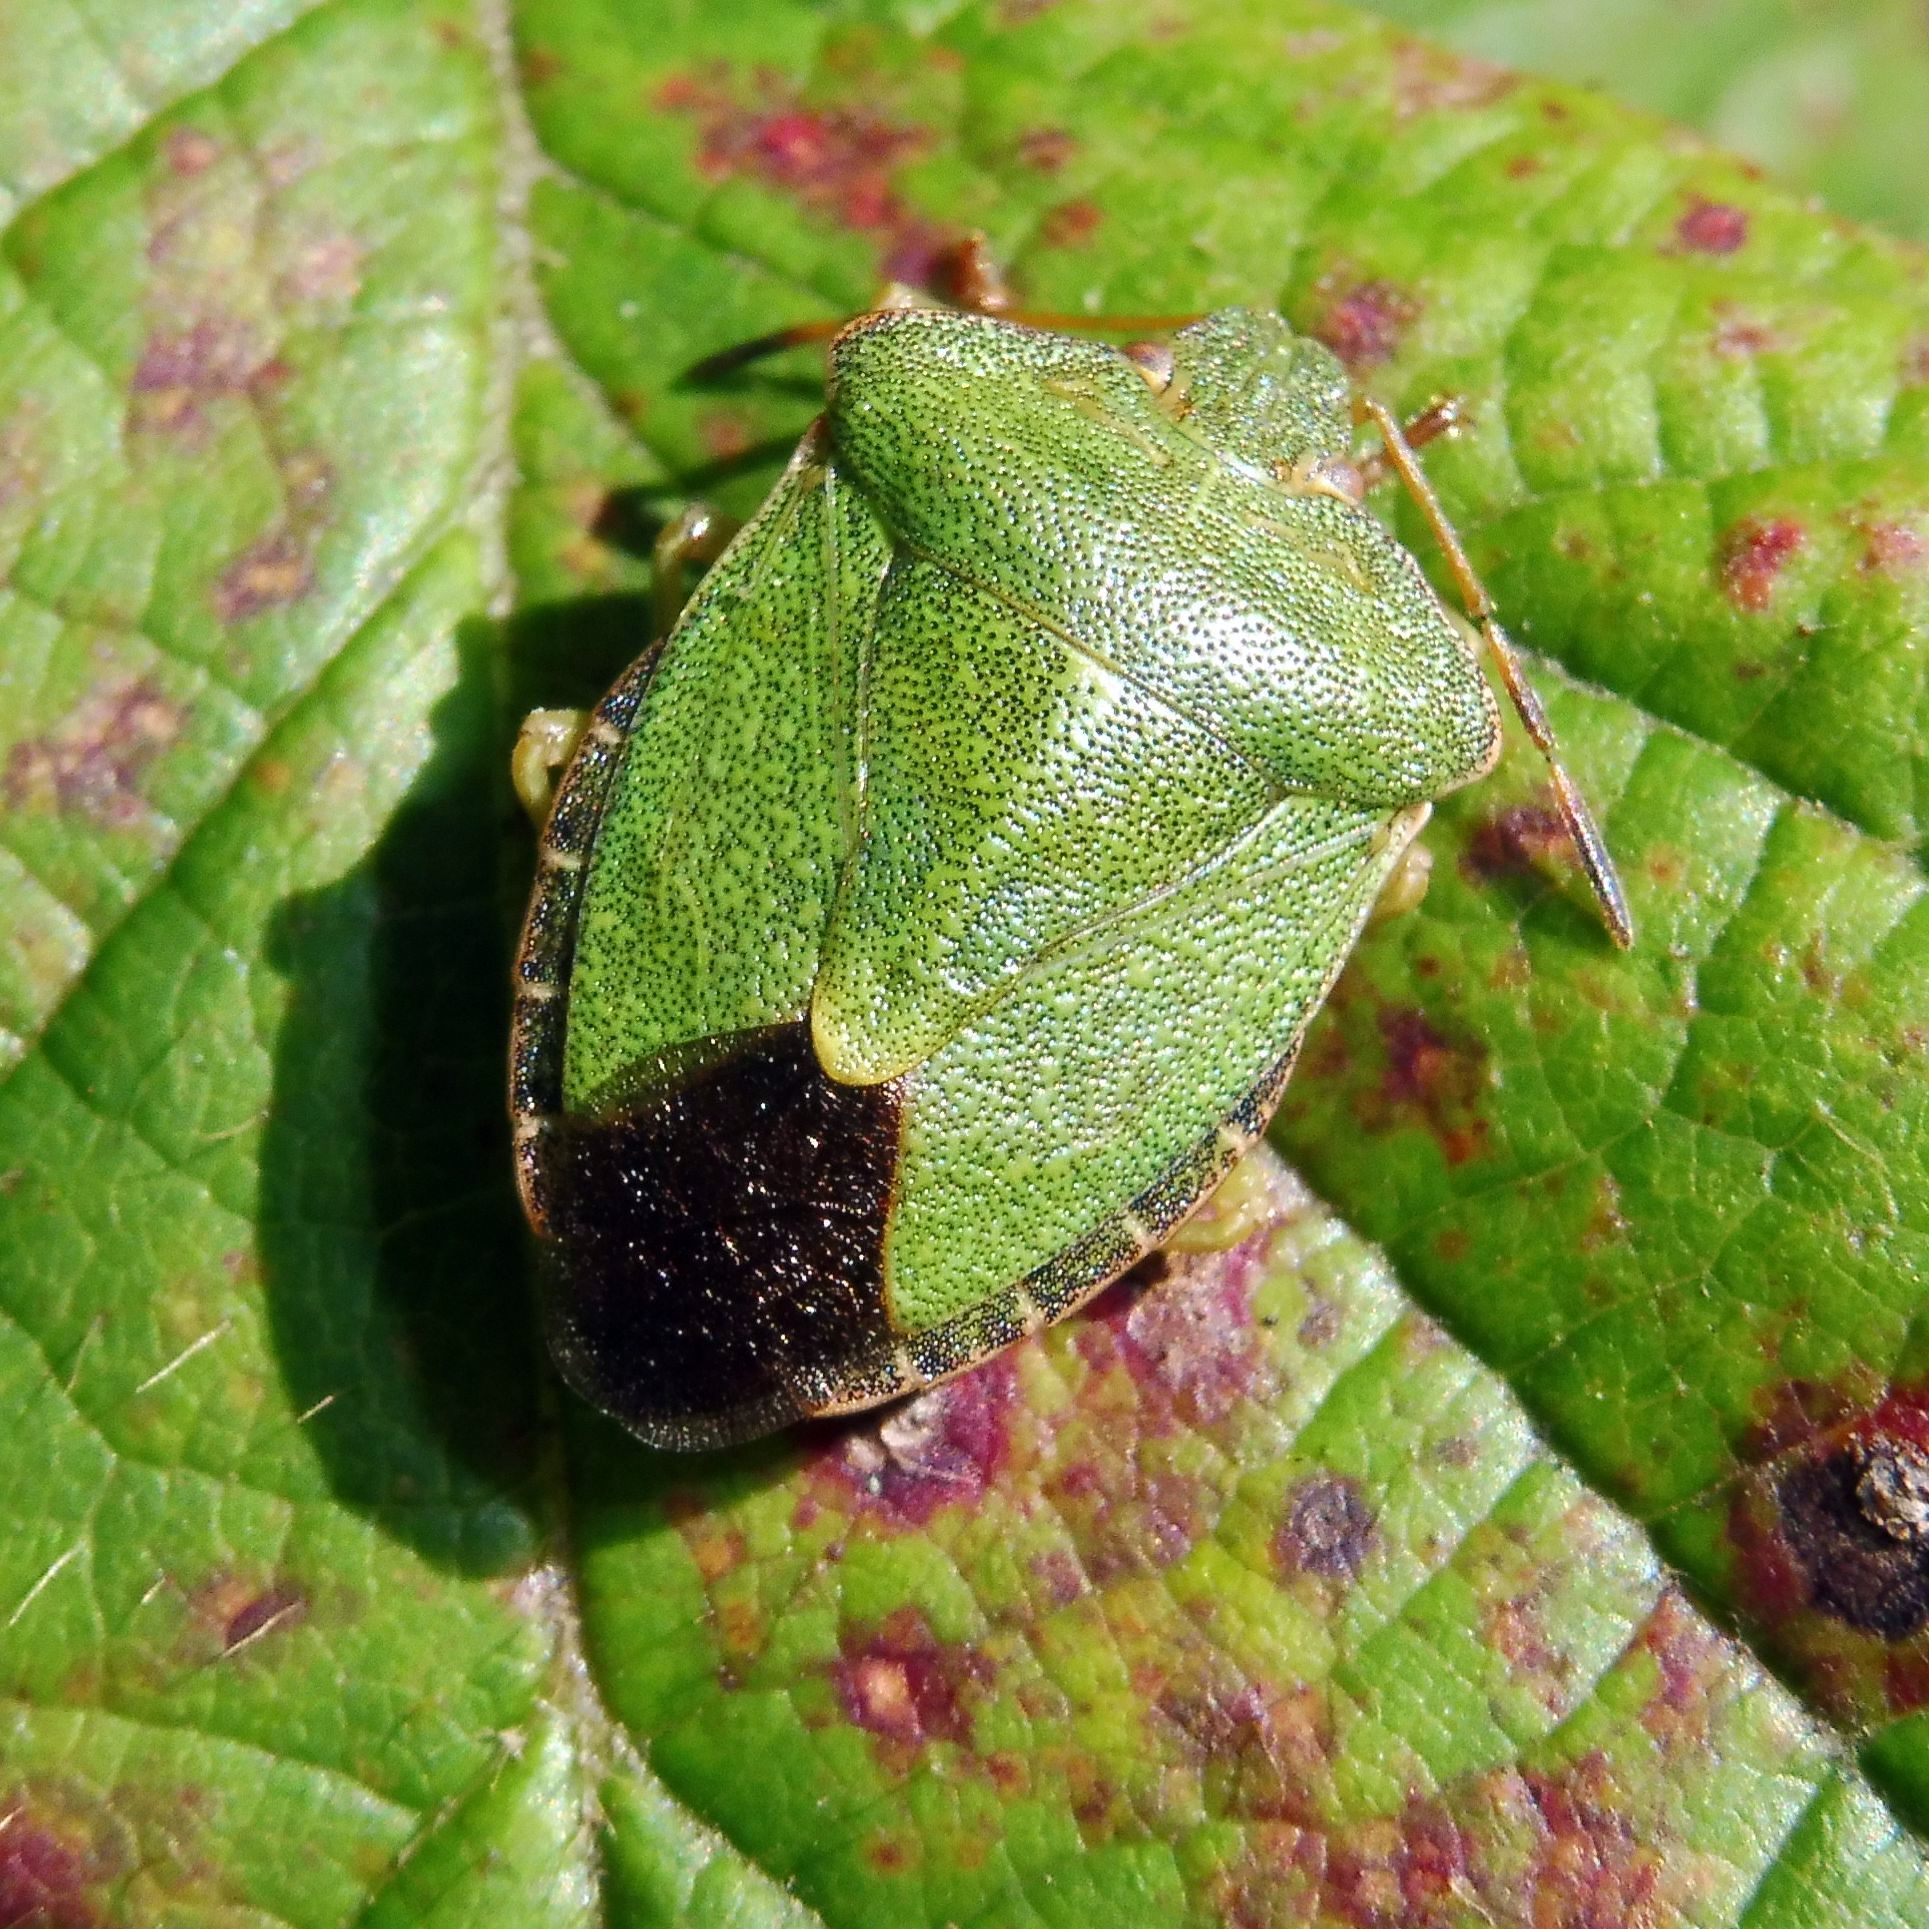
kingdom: Animalia
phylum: Arthropoda
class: Insecta
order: Hemiptera
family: Pentatomidae
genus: Palomena
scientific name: Palomena prasina
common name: Green shieldbug
